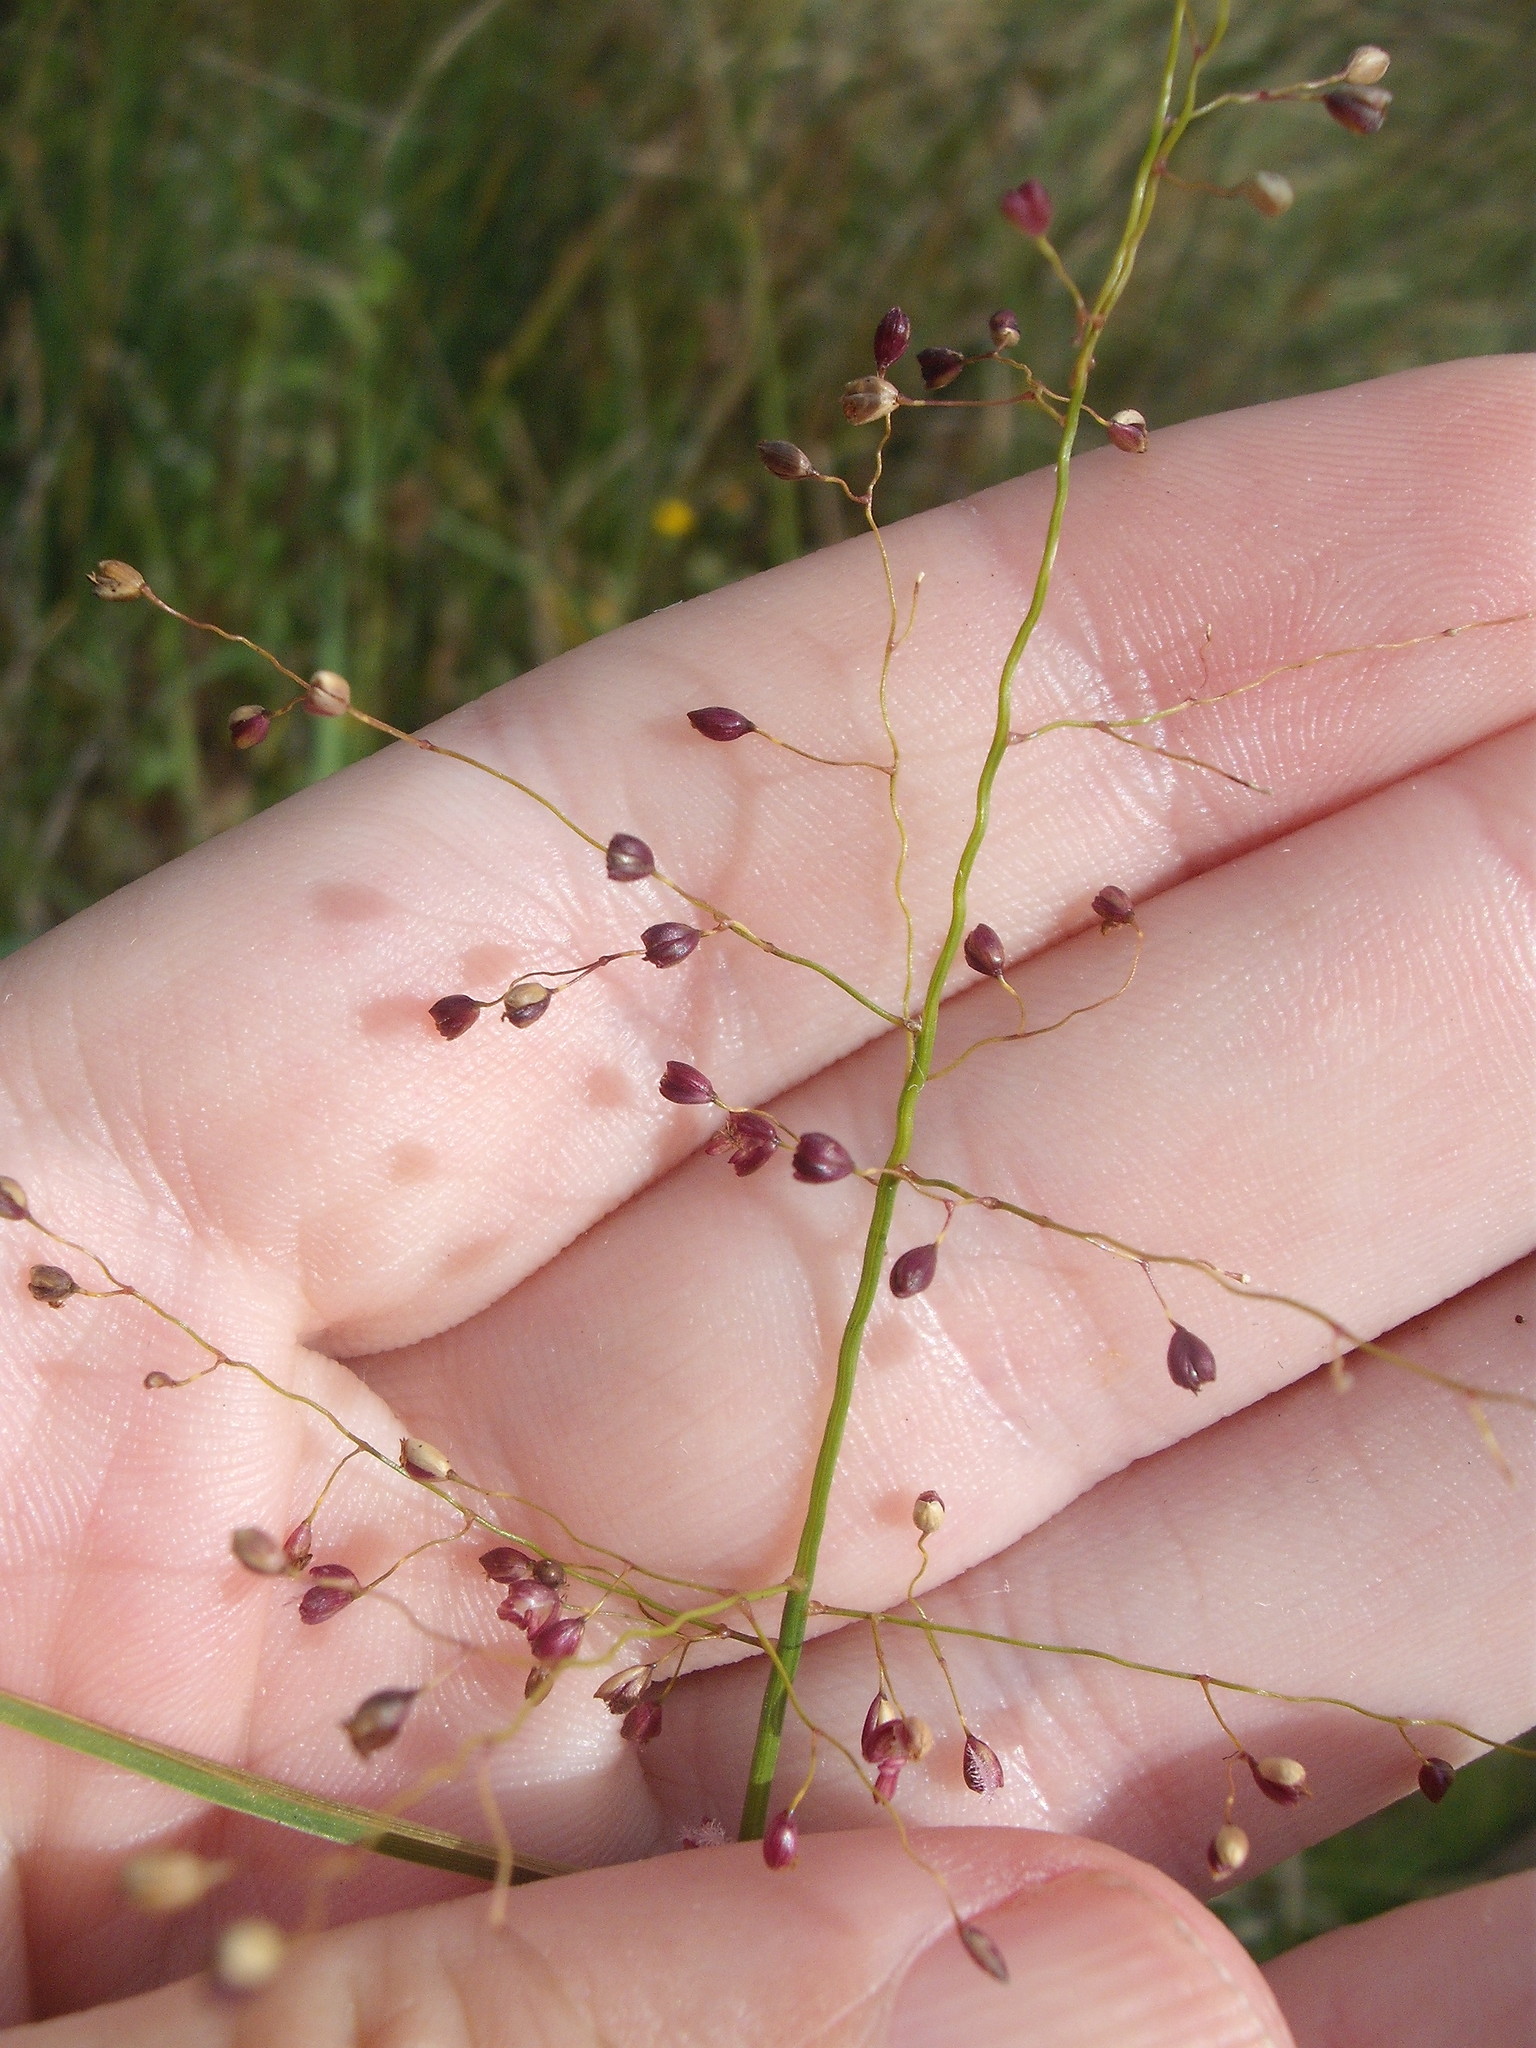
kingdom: Plantae
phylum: Tracheophyta
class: Liliopsida
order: Poales
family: Poaceae
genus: Isachne
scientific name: Isachne globosa
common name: Swamp millet
